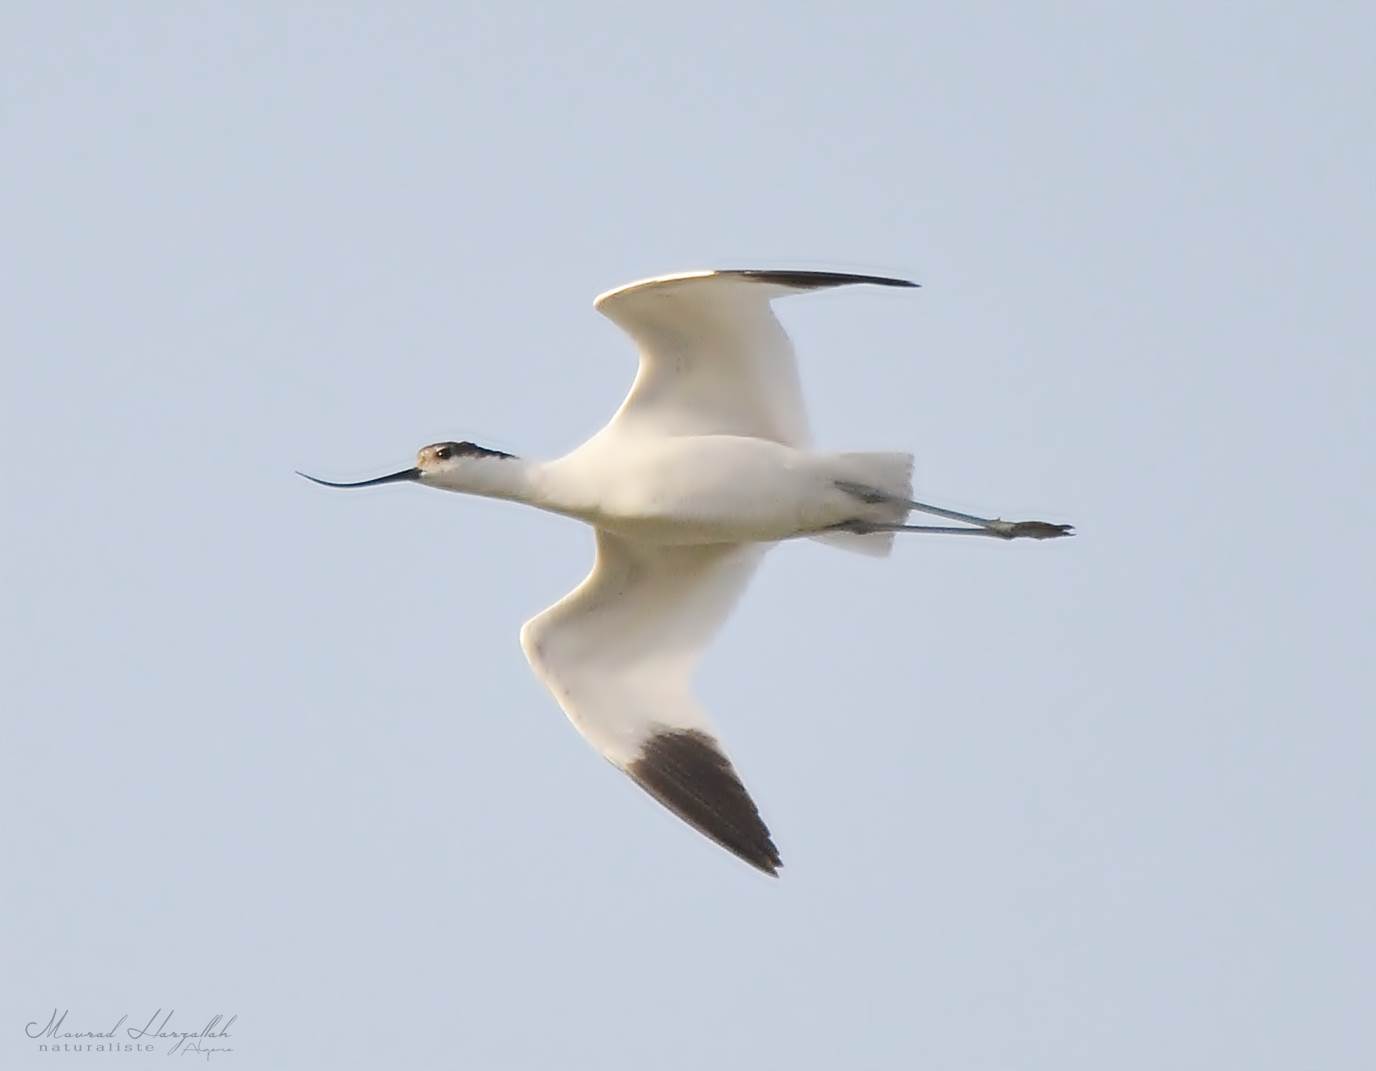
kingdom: Animalia
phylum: Chordata
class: Aves
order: Charadriiformes
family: Recurvirostridae
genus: Recurvirostra
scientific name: Recurvirostra avosetta
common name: Pied avocet
